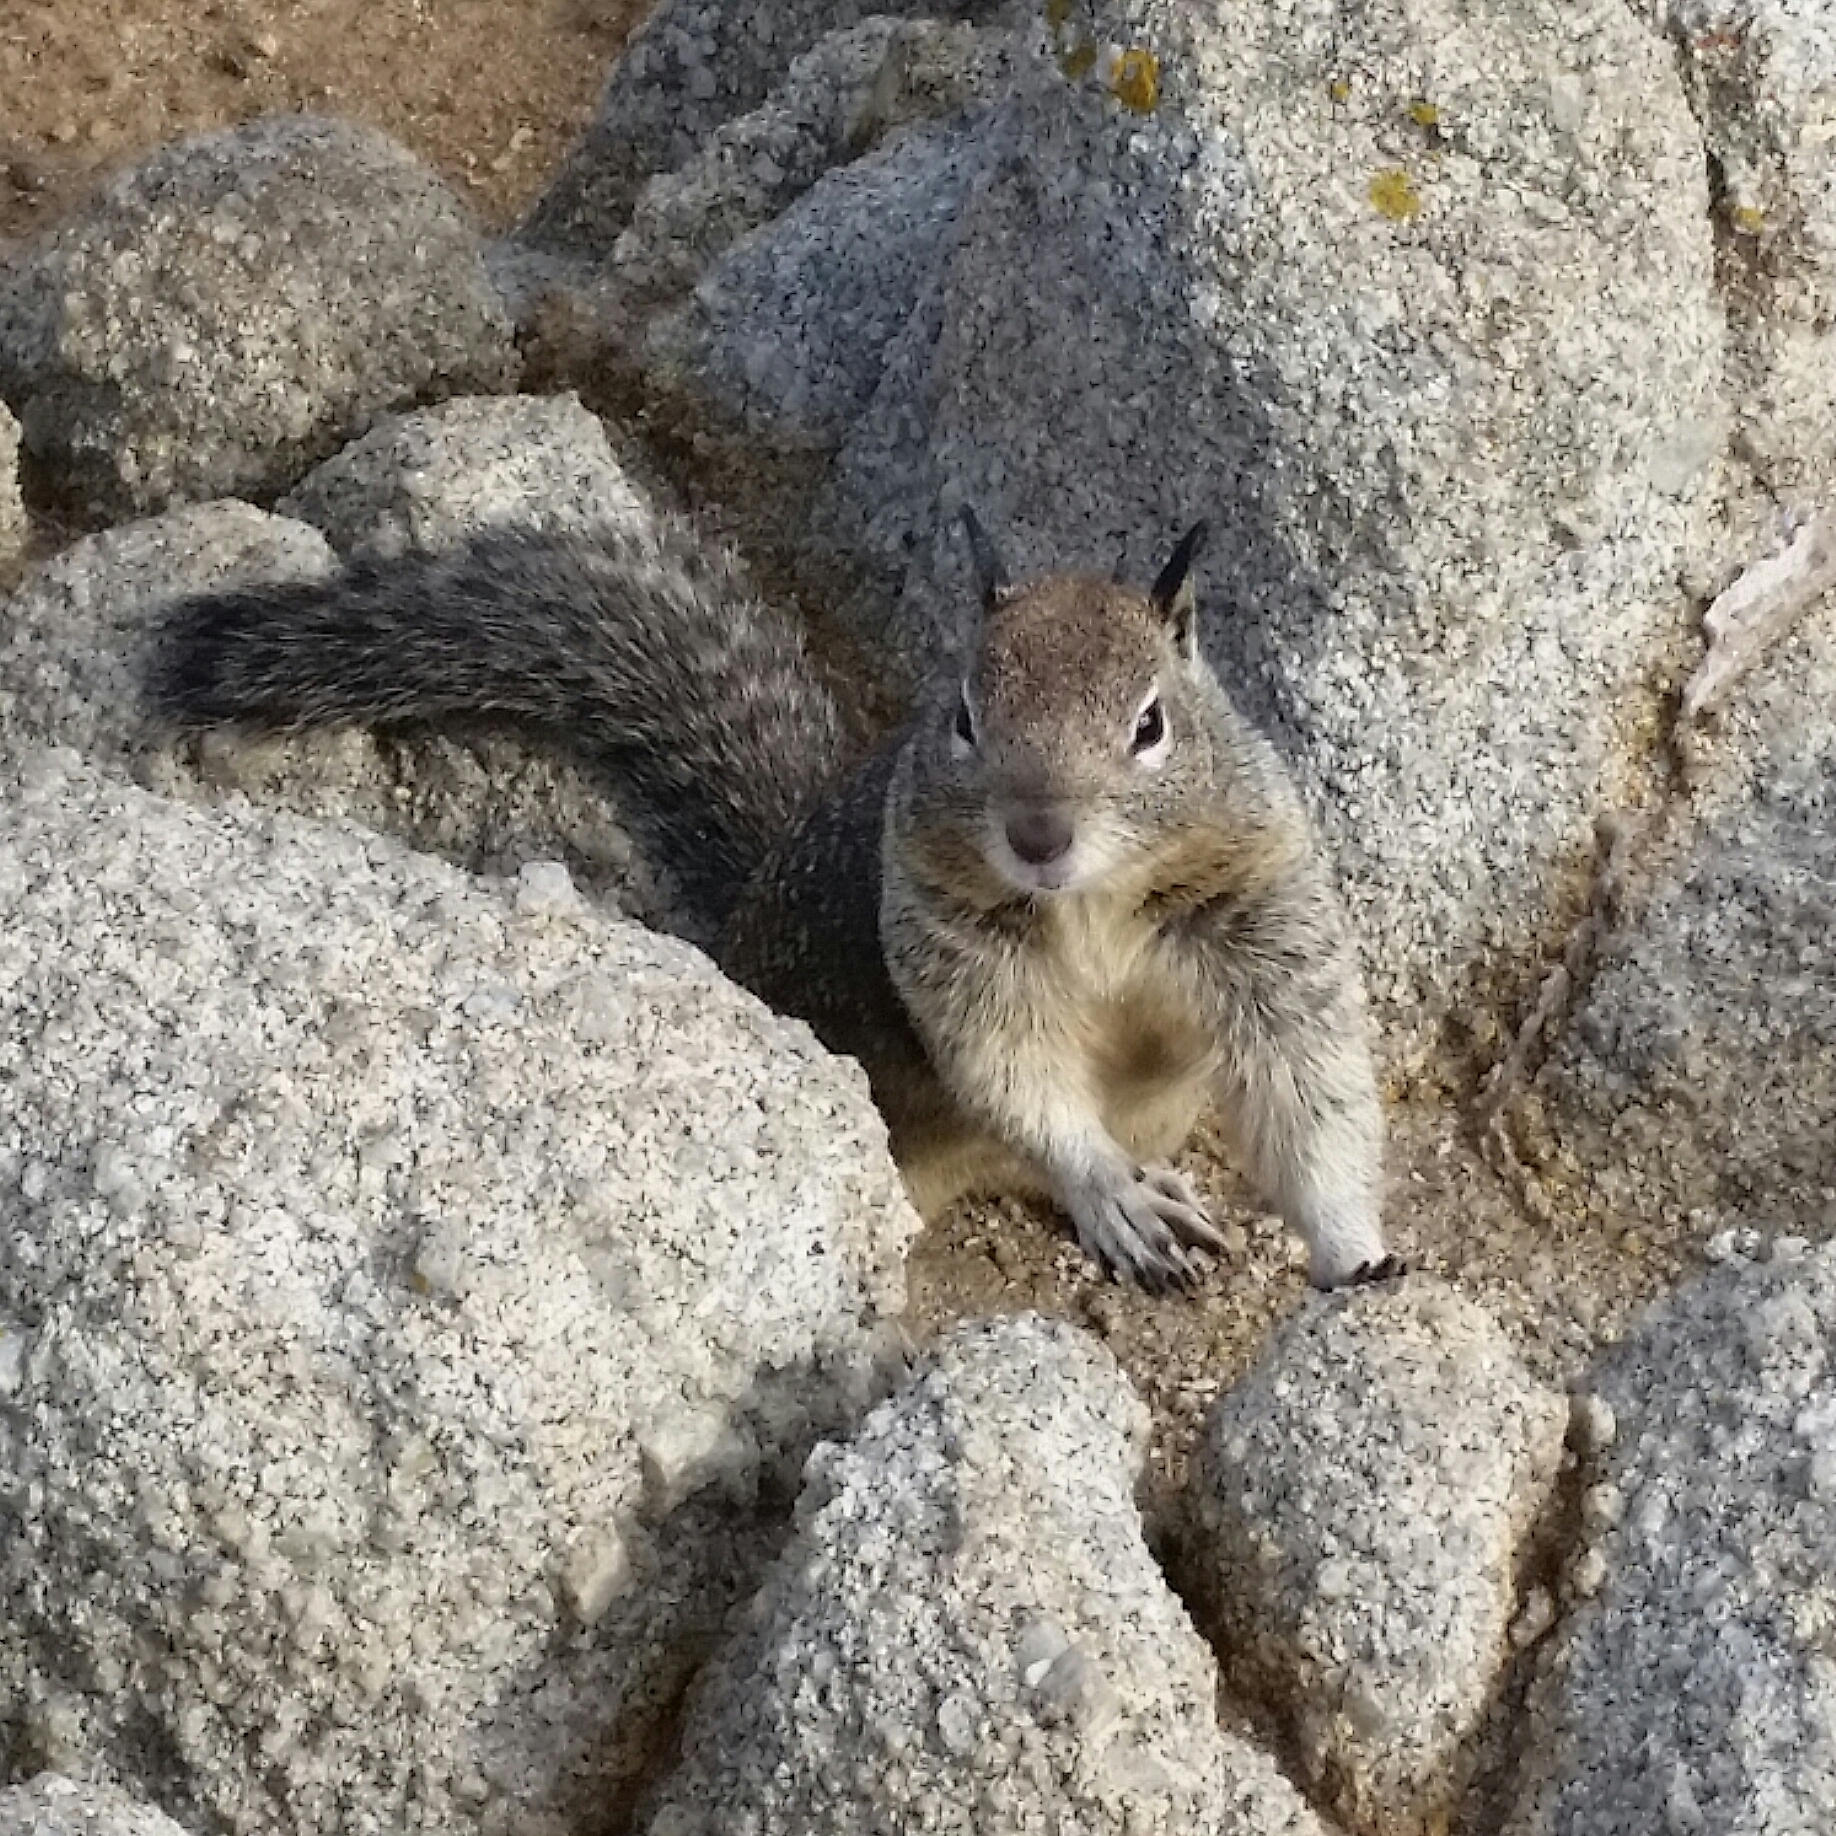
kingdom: Animalia
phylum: Chordata
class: Mammalia
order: Rodentia
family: Sciuridae
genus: Otospermophilus
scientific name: Otospermophilus beecheyi
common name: California ground squirrel
